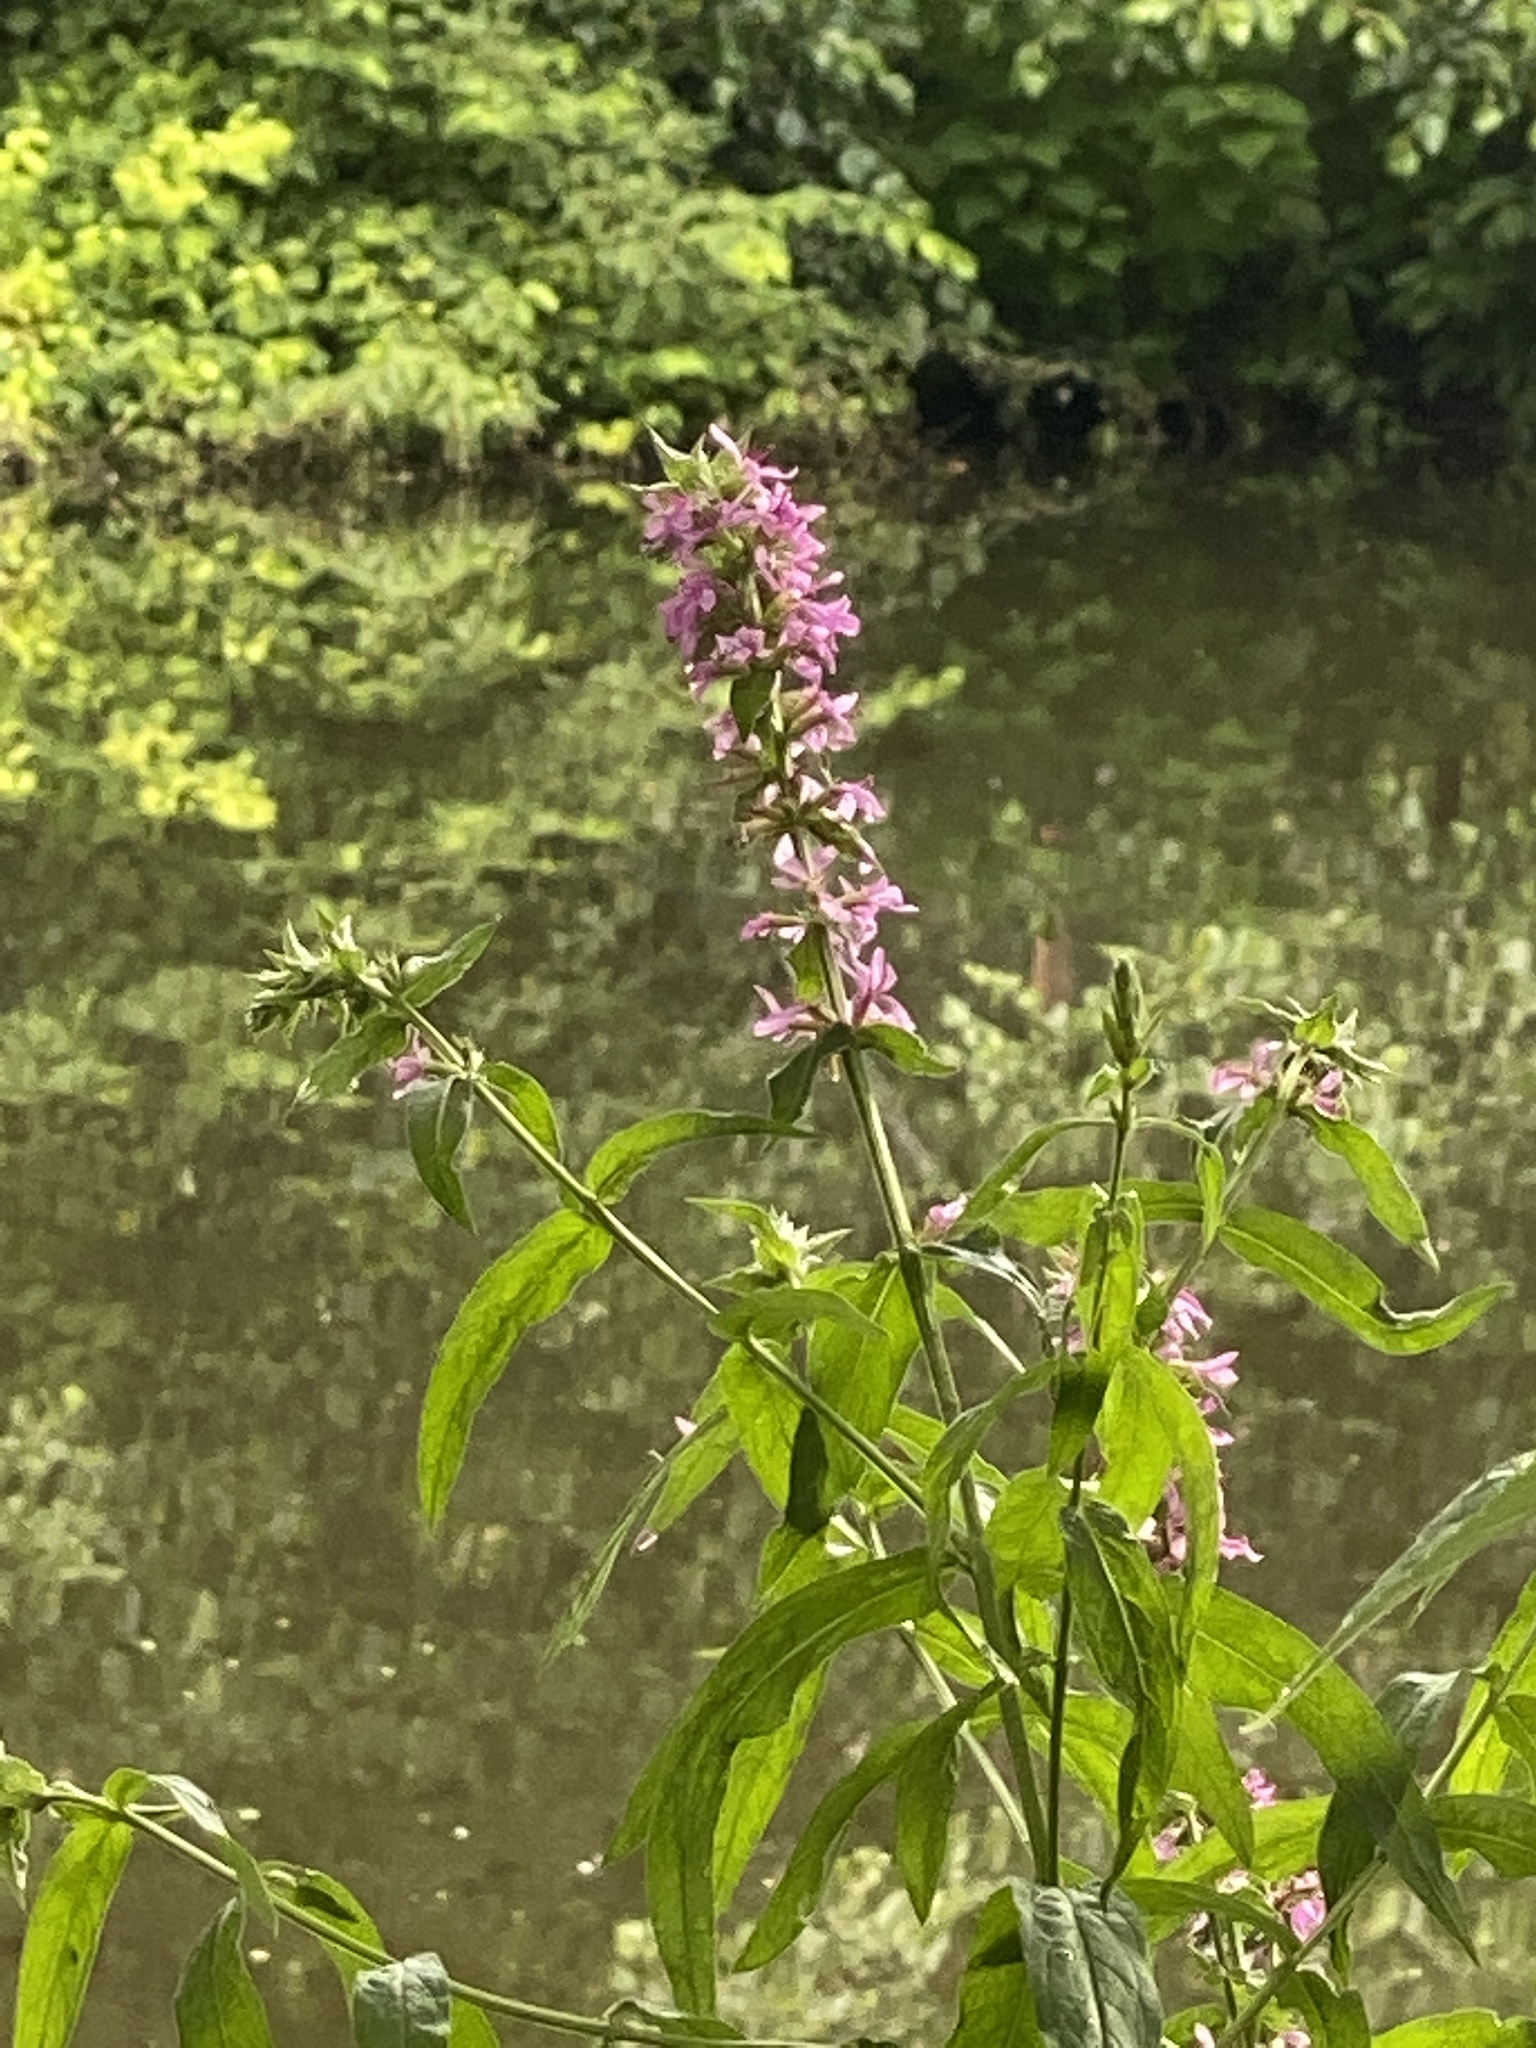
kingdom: Plantae
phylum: Tracheophyta
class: Magnoliopsida
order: Myrtales
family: Lythraceae
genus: Lythrum
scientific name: Lythrum salicaria
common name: Purple loosestrife
